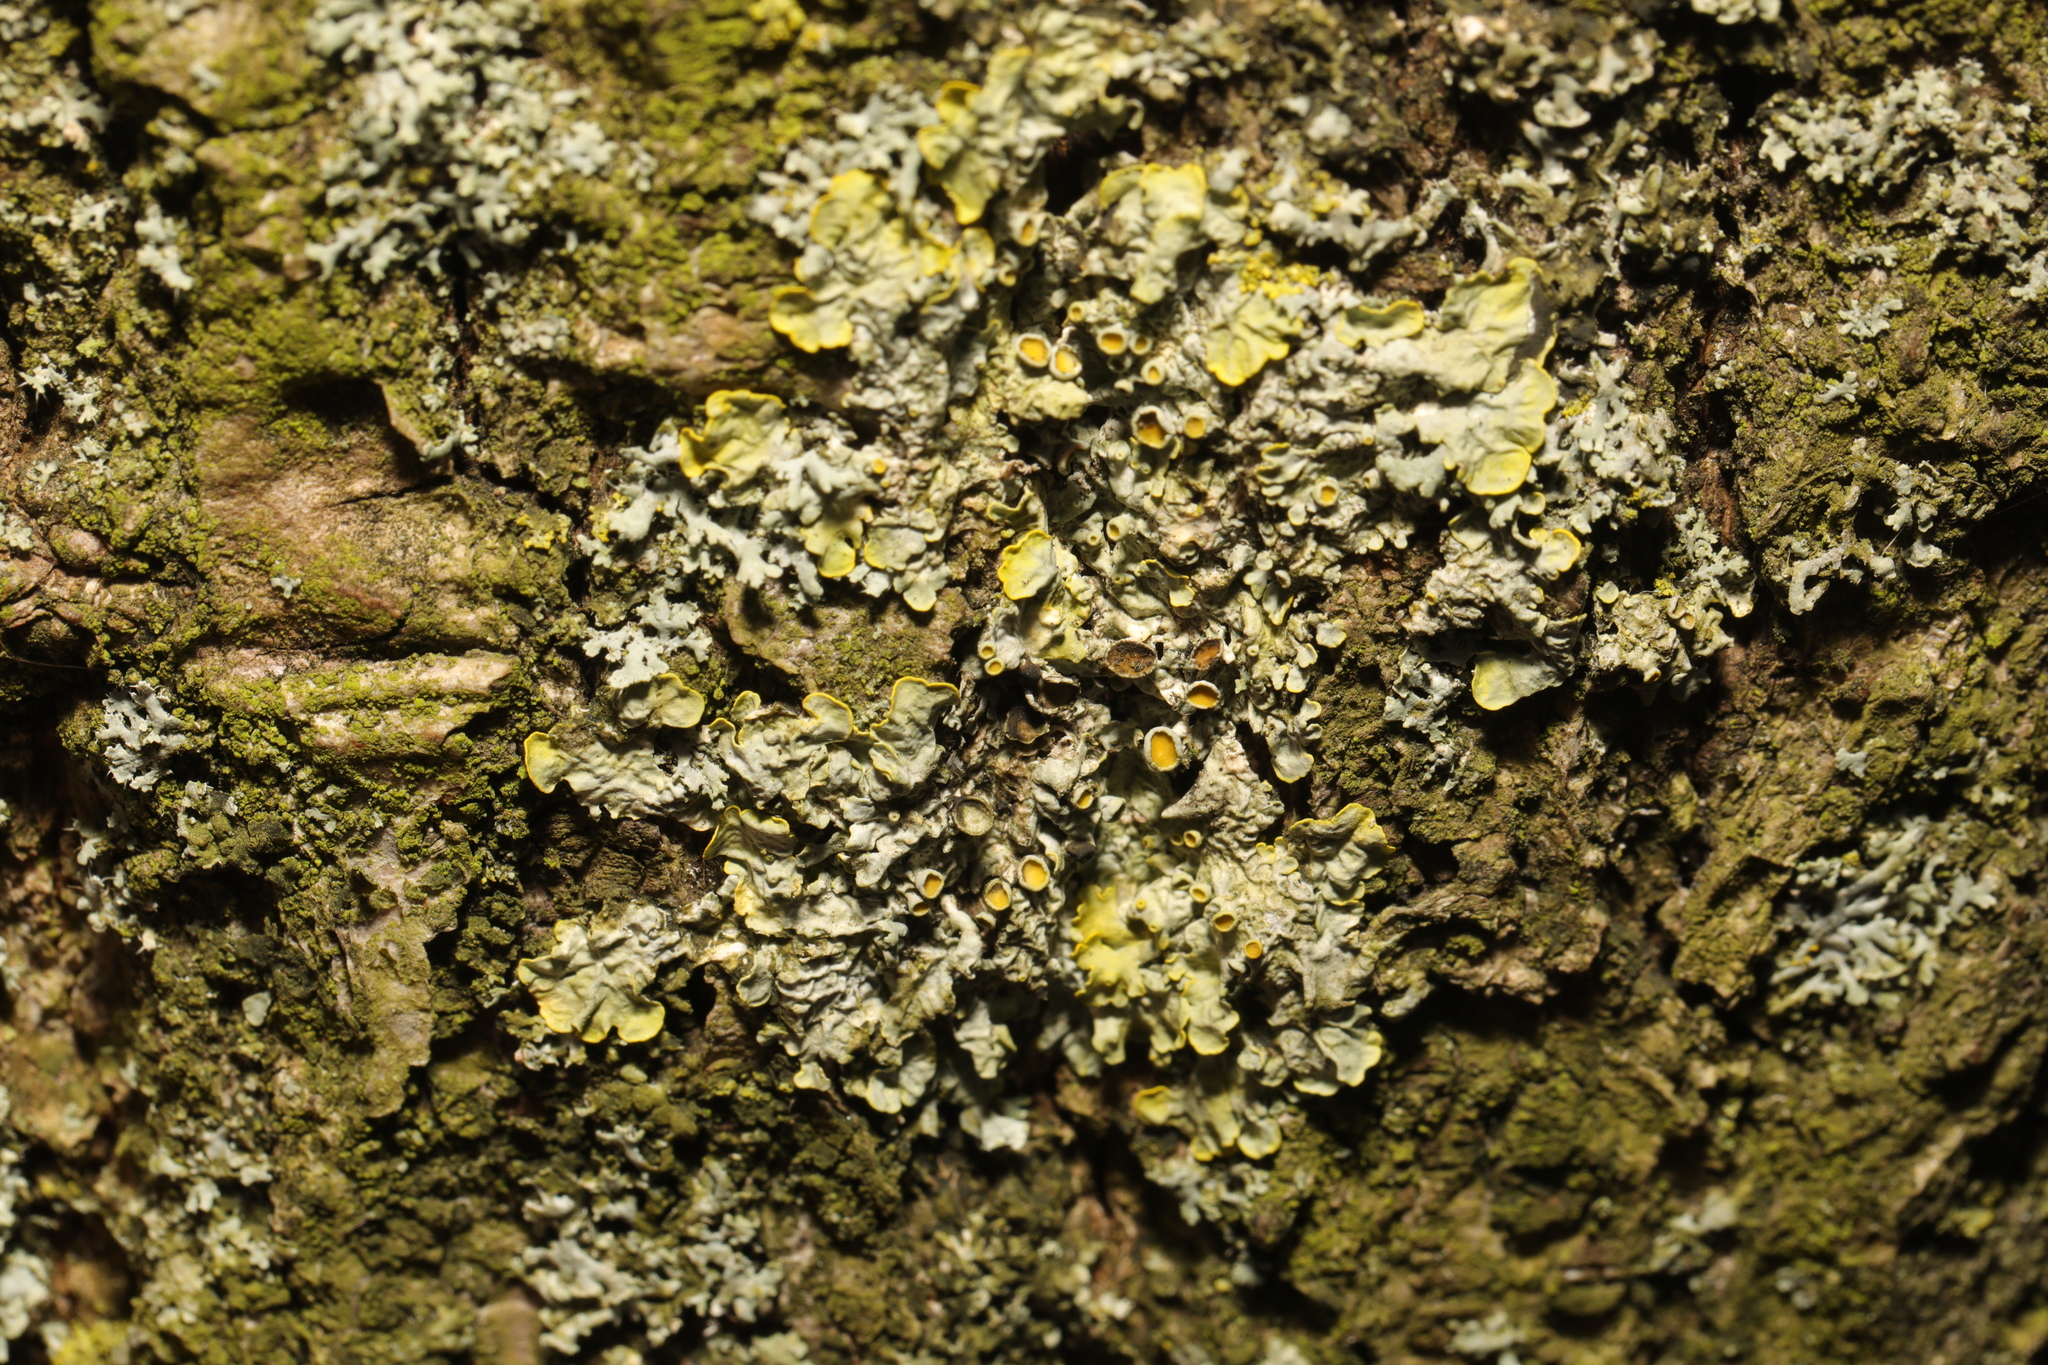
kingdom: Fungi
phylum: Ascomycota
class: Lecanoromycetes
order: Teloschistales
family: Teloschistaceae
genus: Xanthoria
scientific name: Xanthoria parietina
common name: Common orange lichen
